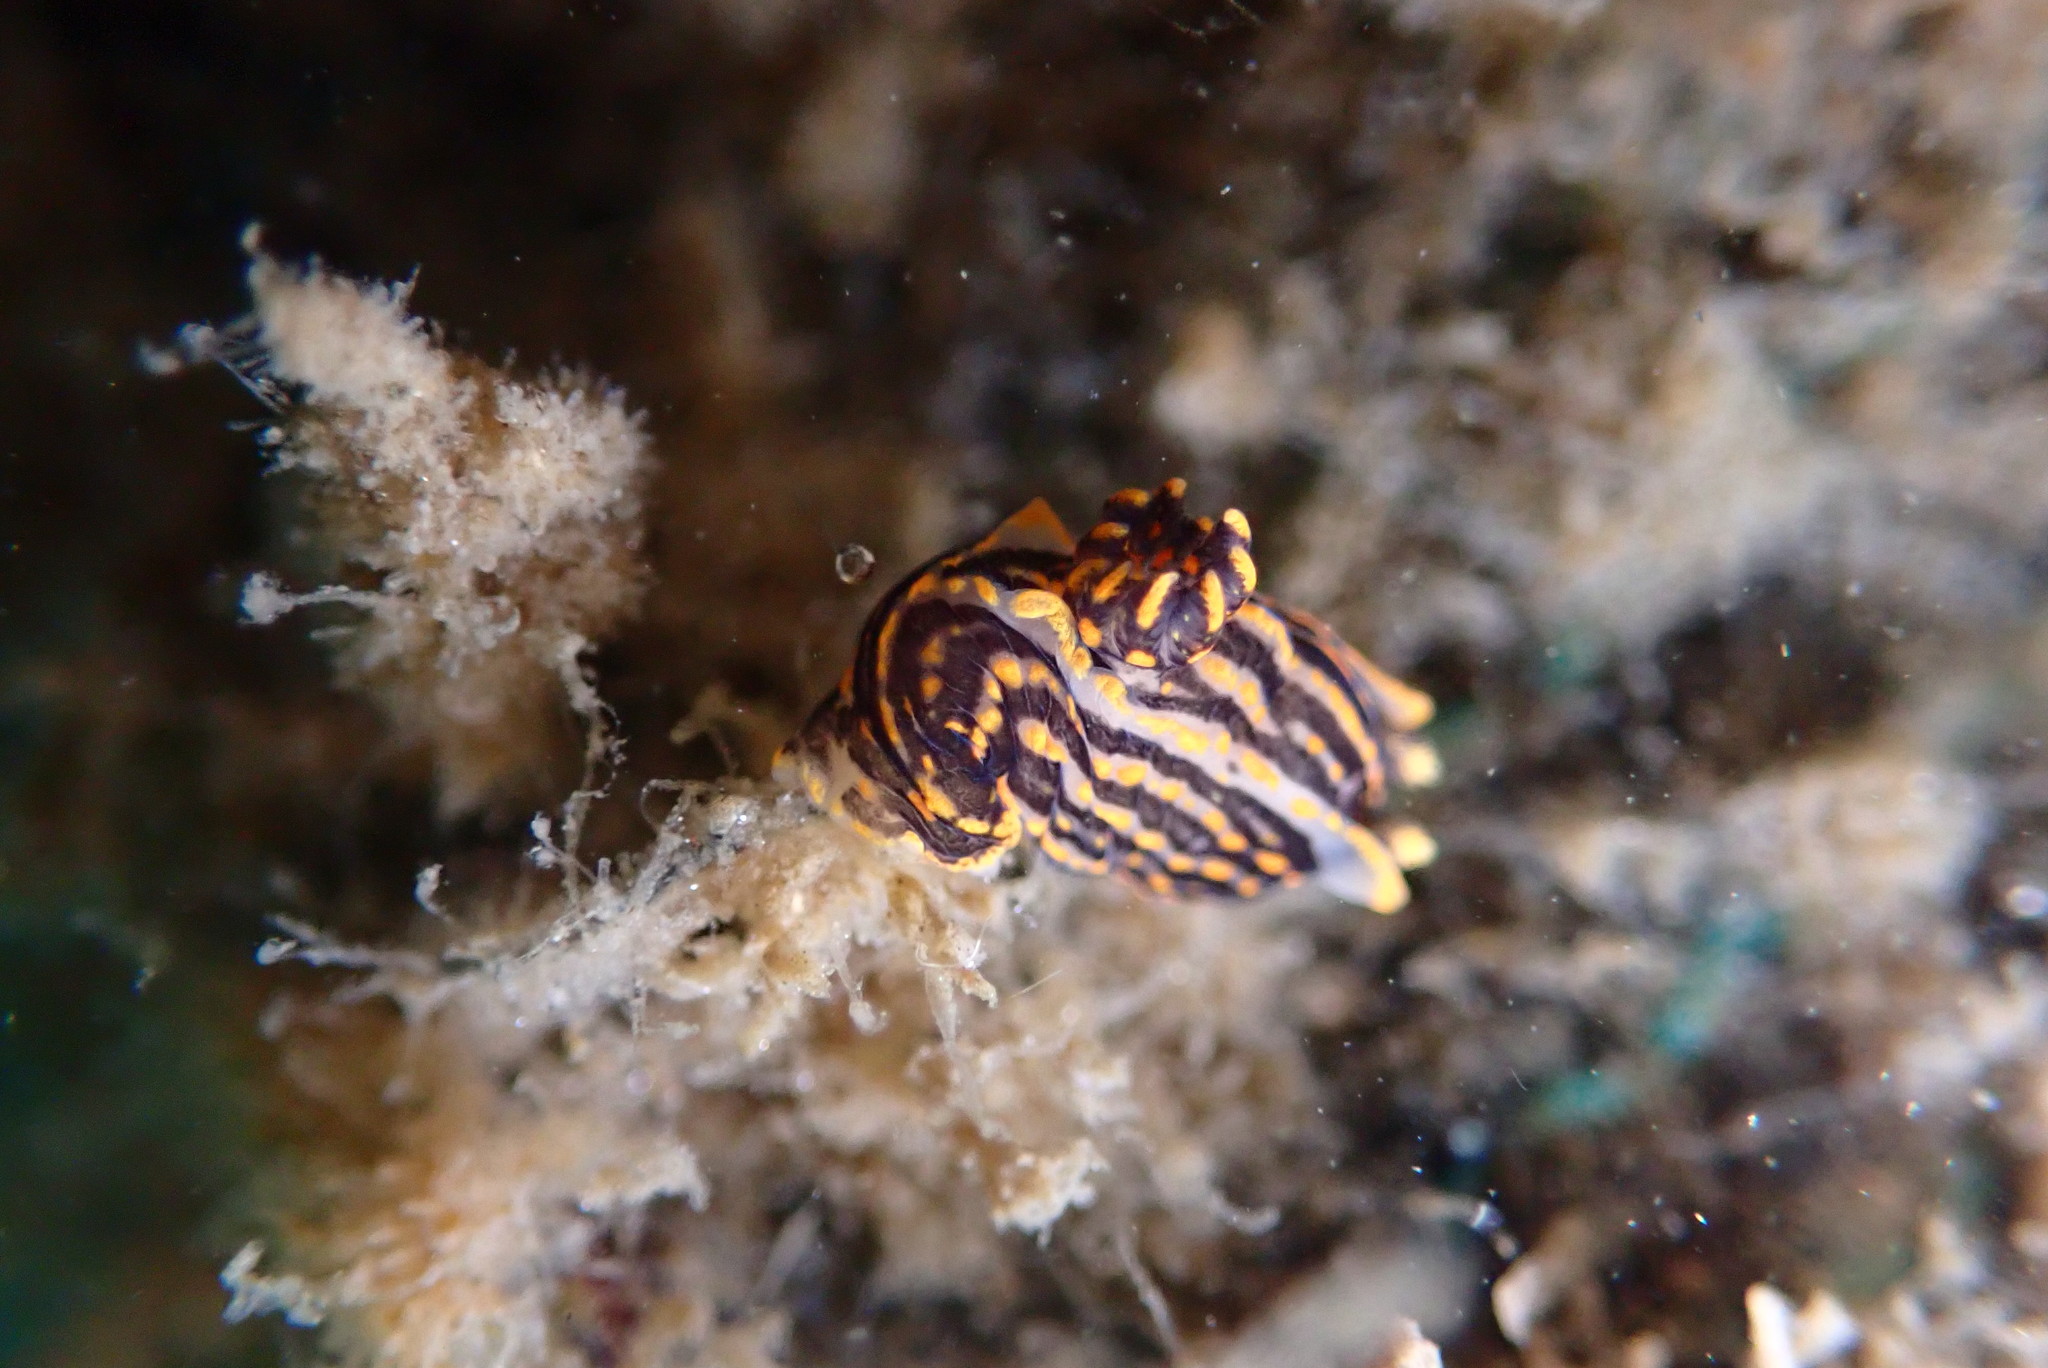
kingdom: Animalia
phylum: Mollusca
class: Gastropoda
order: Nudibranchia
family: Polyceridae
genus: Polycera
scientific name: Polycera atra
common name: Orange-spike polycera
